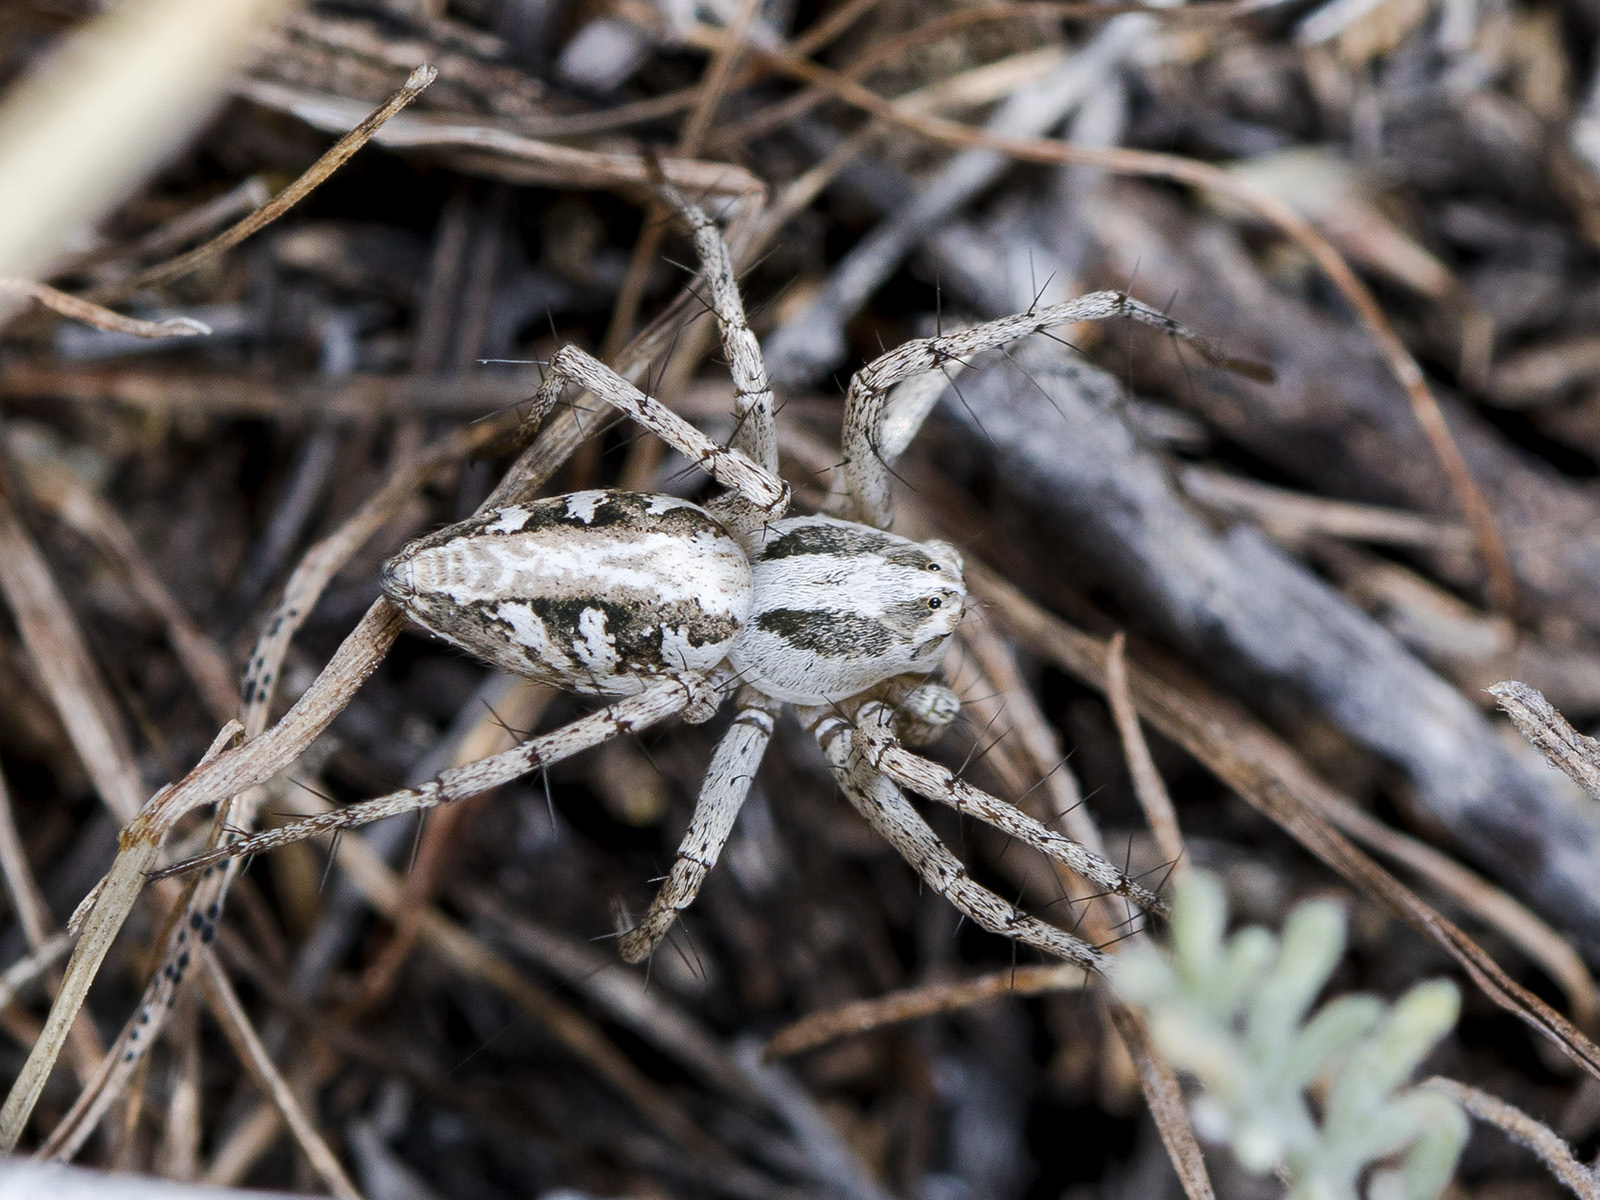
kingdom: Animalia
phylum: Arthropoda
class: Arachnida
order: Araneae
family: Oxyopidae
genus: Oxyopes
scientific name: Oxyopes globifer
